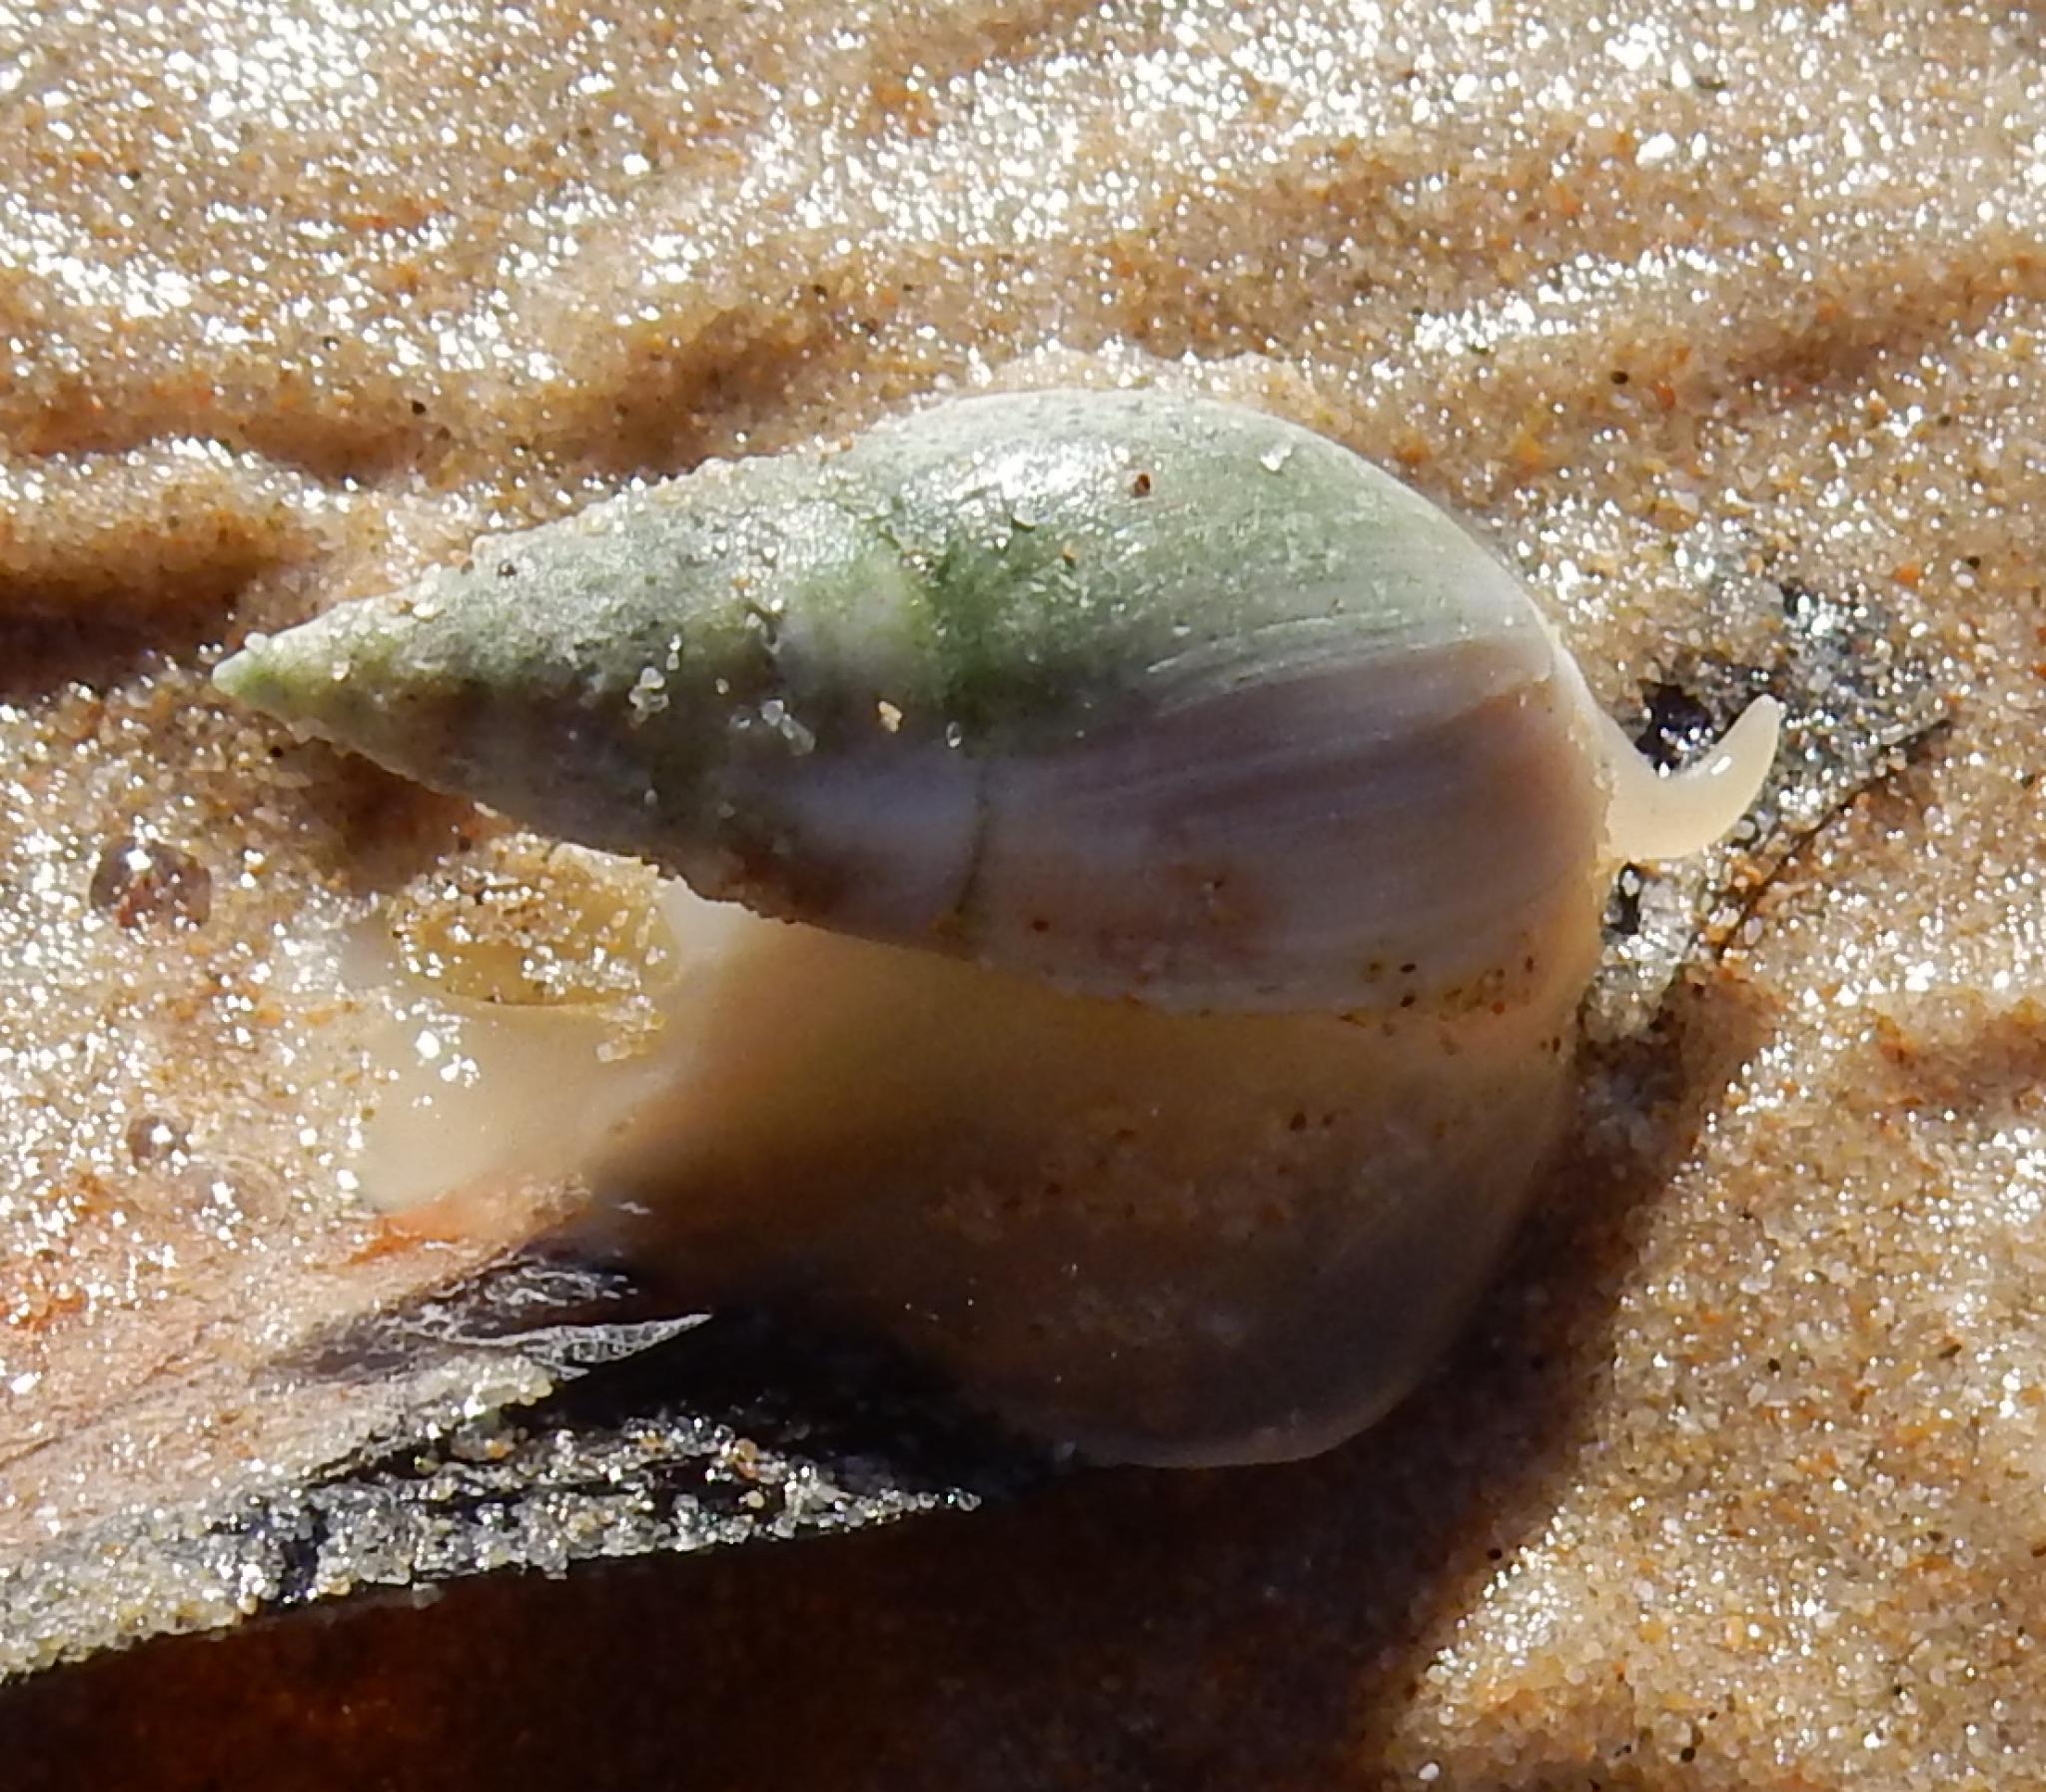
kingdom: Animalia
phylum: Mollusca
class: Gastropoda
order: Neogastropoda
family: Nassariidae
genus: Bullia
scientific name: Bullia rhodostoma
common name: Smooth plough shell
